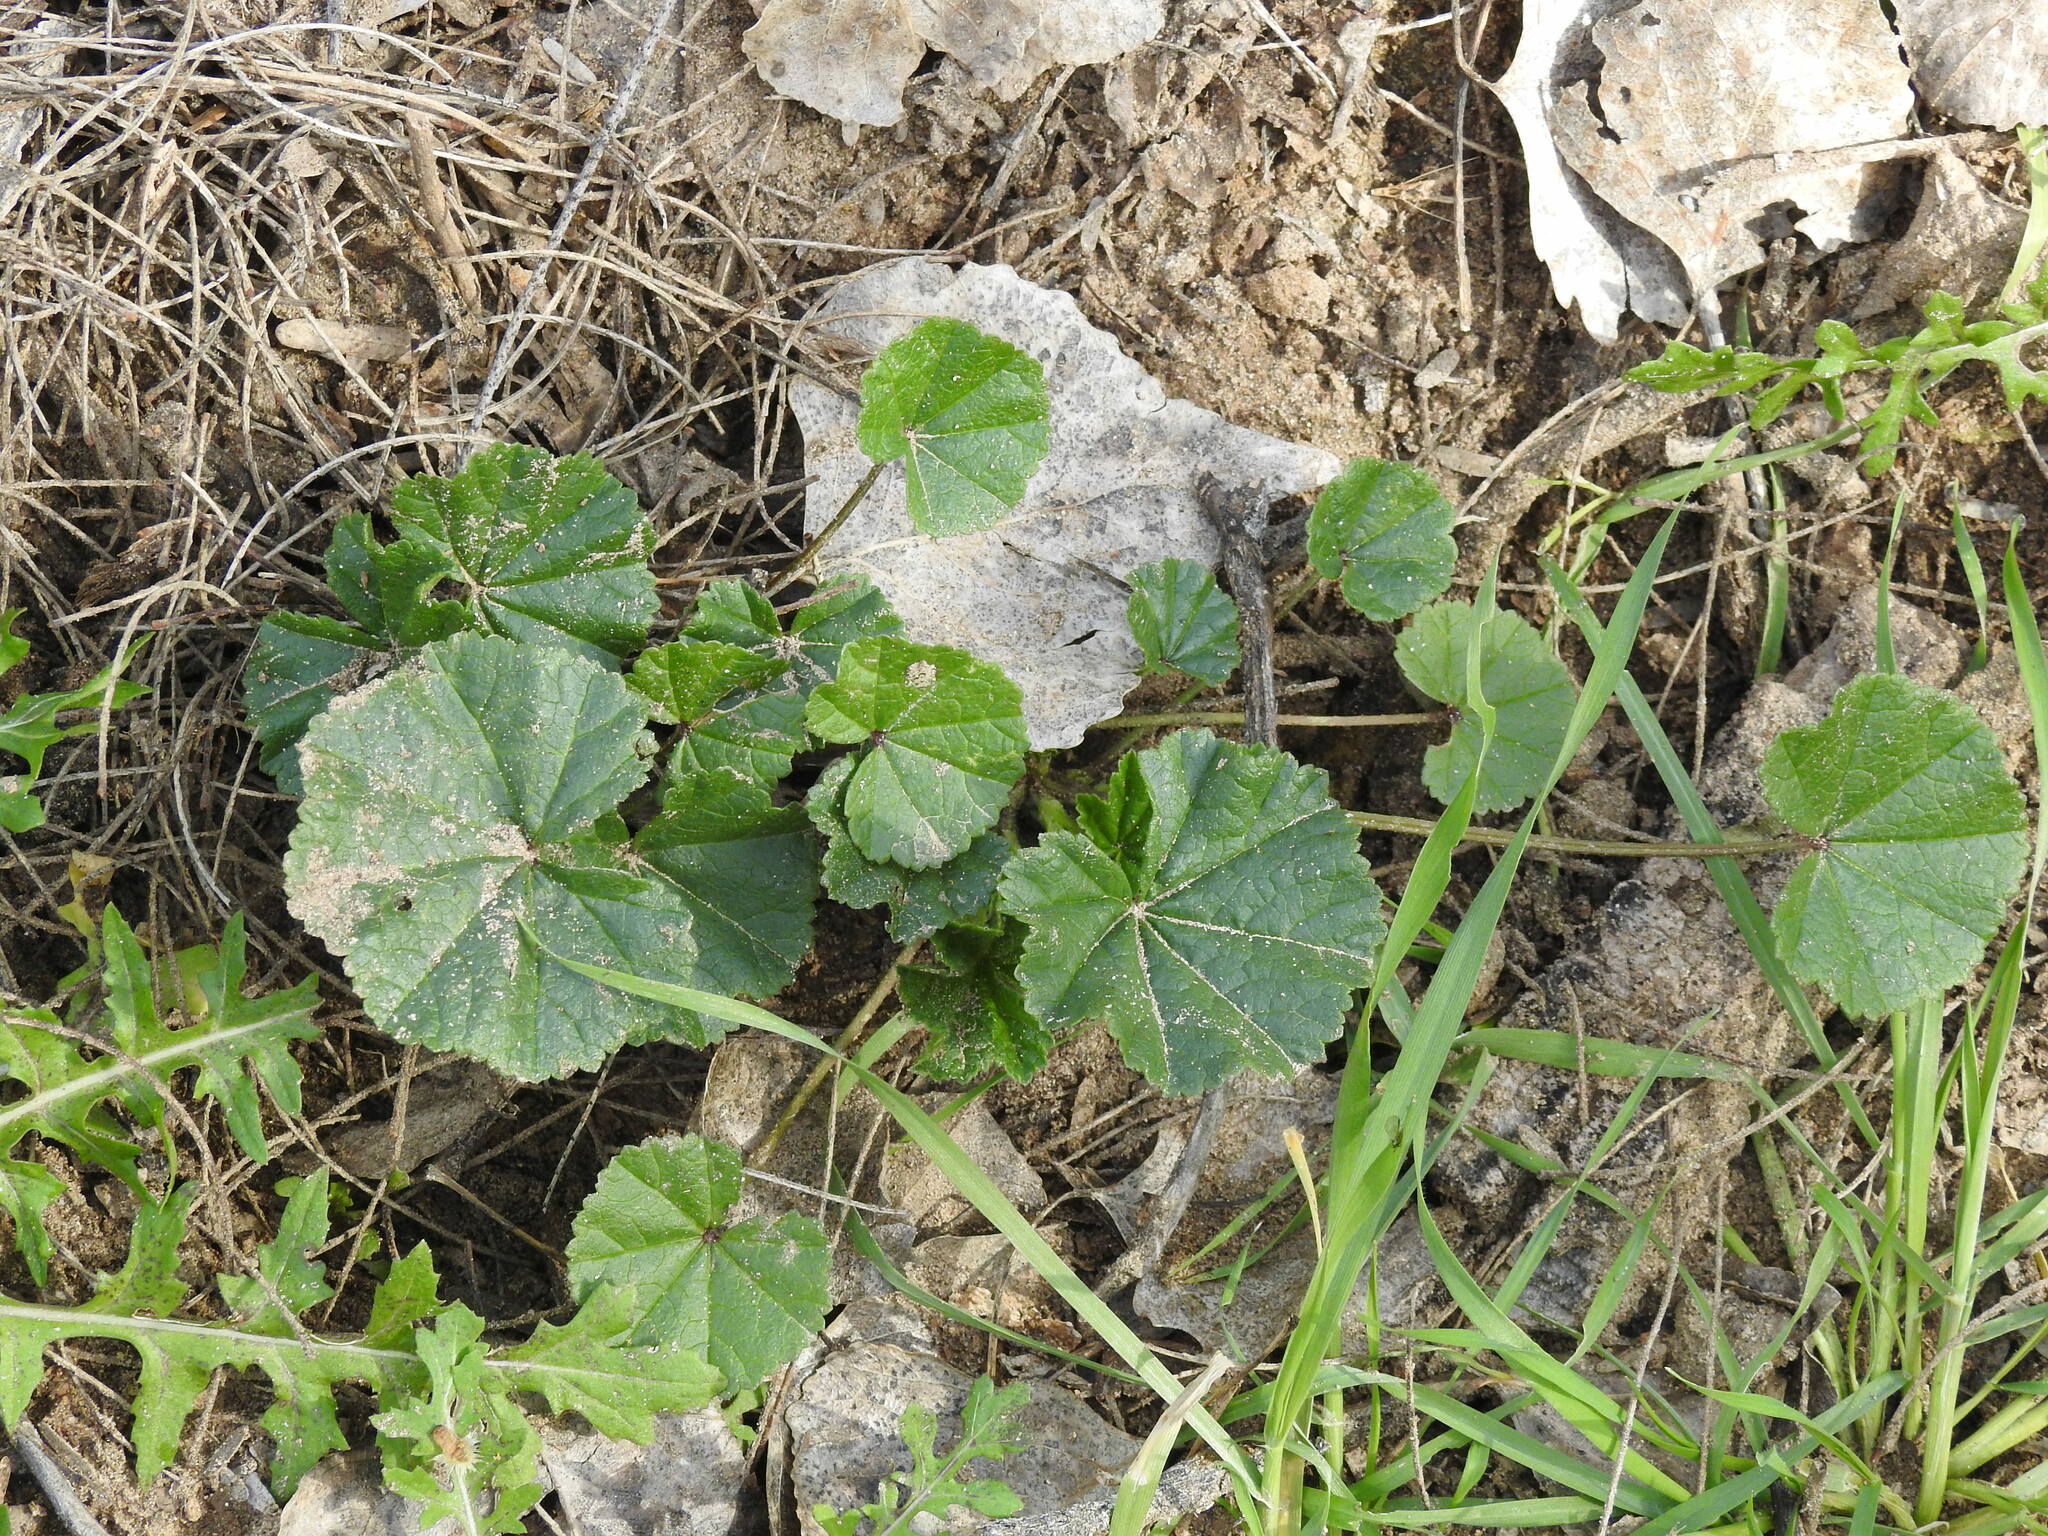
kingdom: Plantae
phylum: Tracheophyta
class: Magnoliopsida
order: Malvales
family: Malvaceae
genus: Malva
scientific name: Malva parviflora
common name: Least mallow
